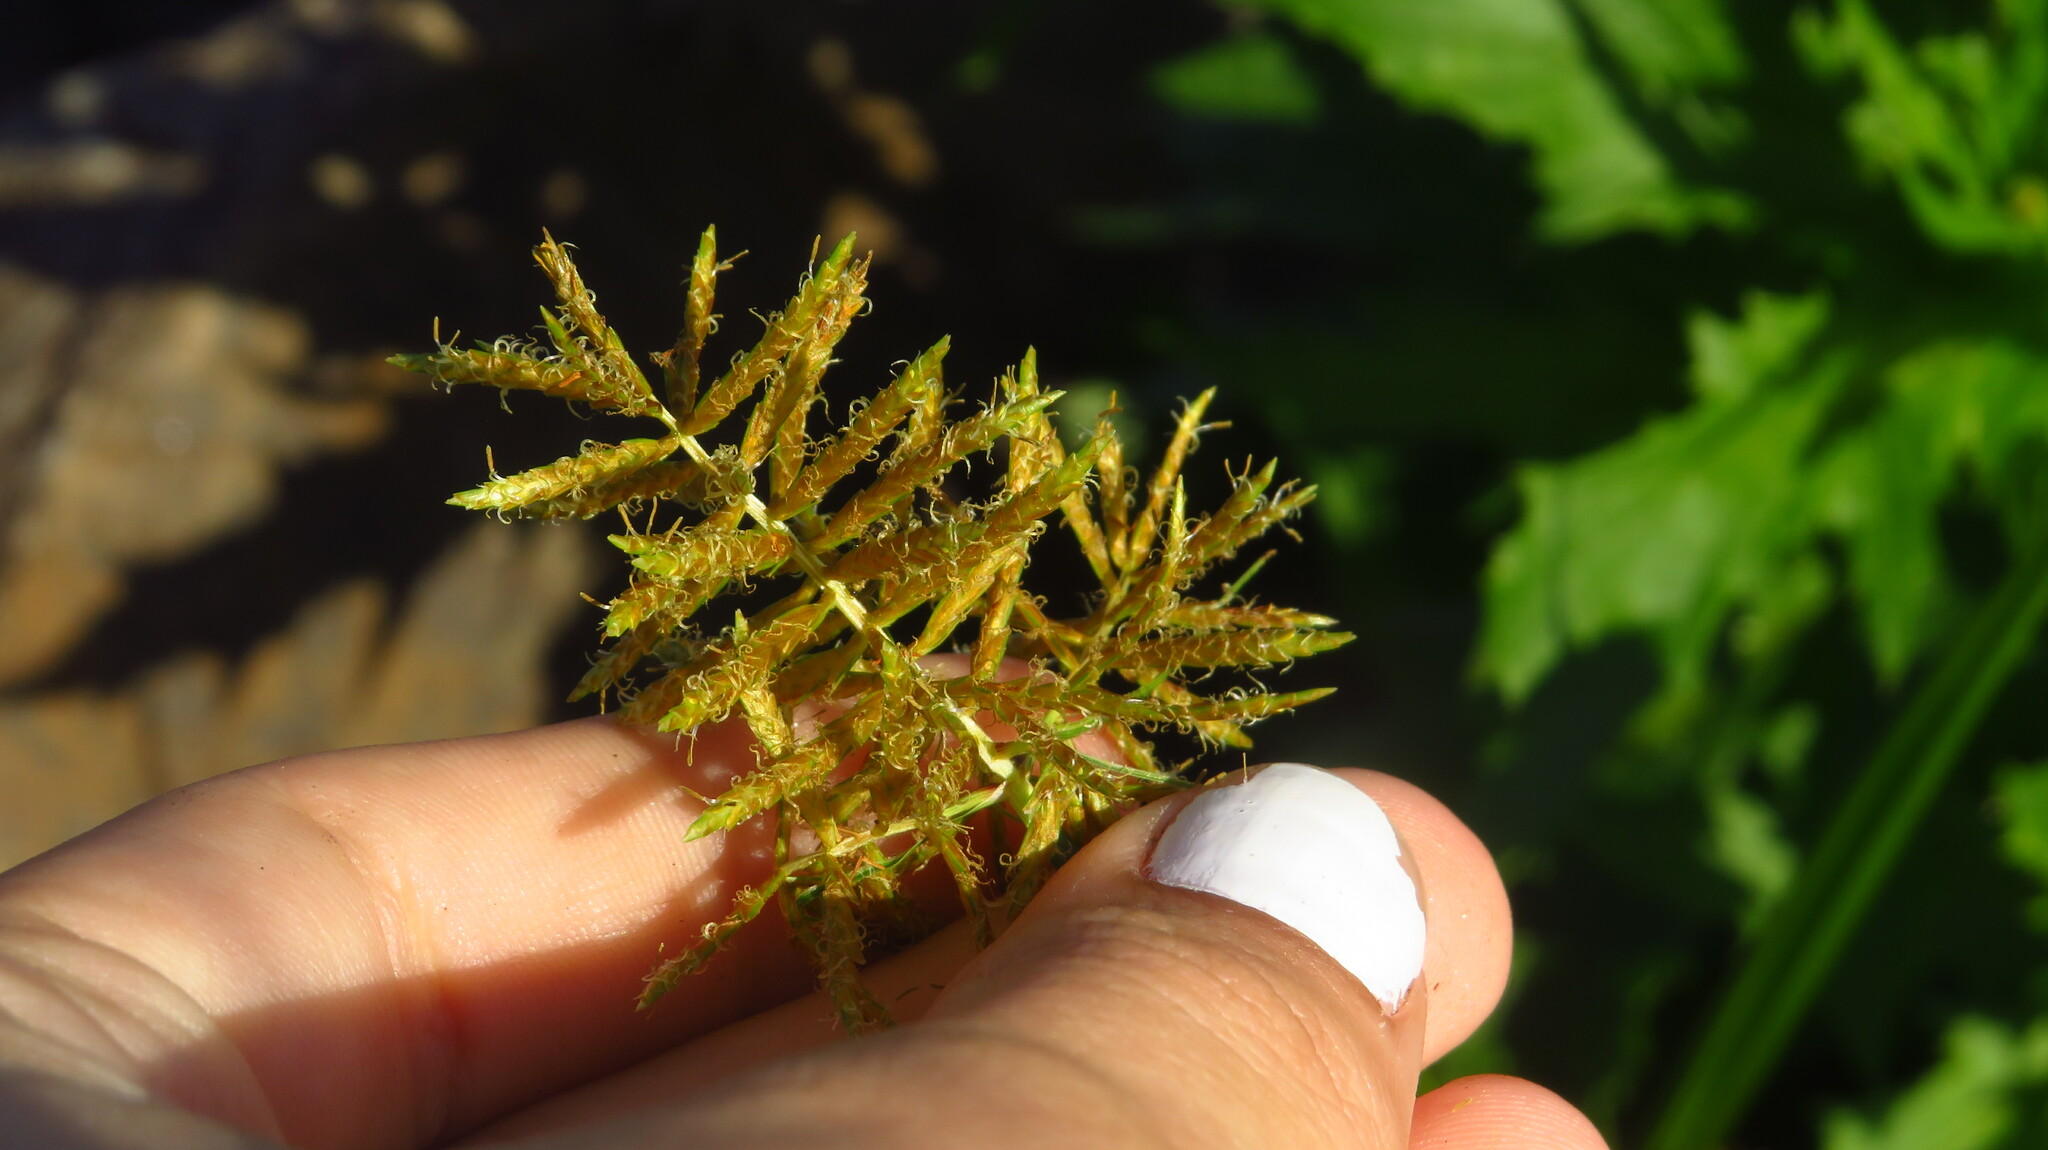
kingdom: Plantae
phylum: Tracheophyta
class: Liliopsida
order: Poales
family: Cyperaceae
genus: Cyperus
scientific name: Cyperus esculentus
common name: Yellow nutsedge
